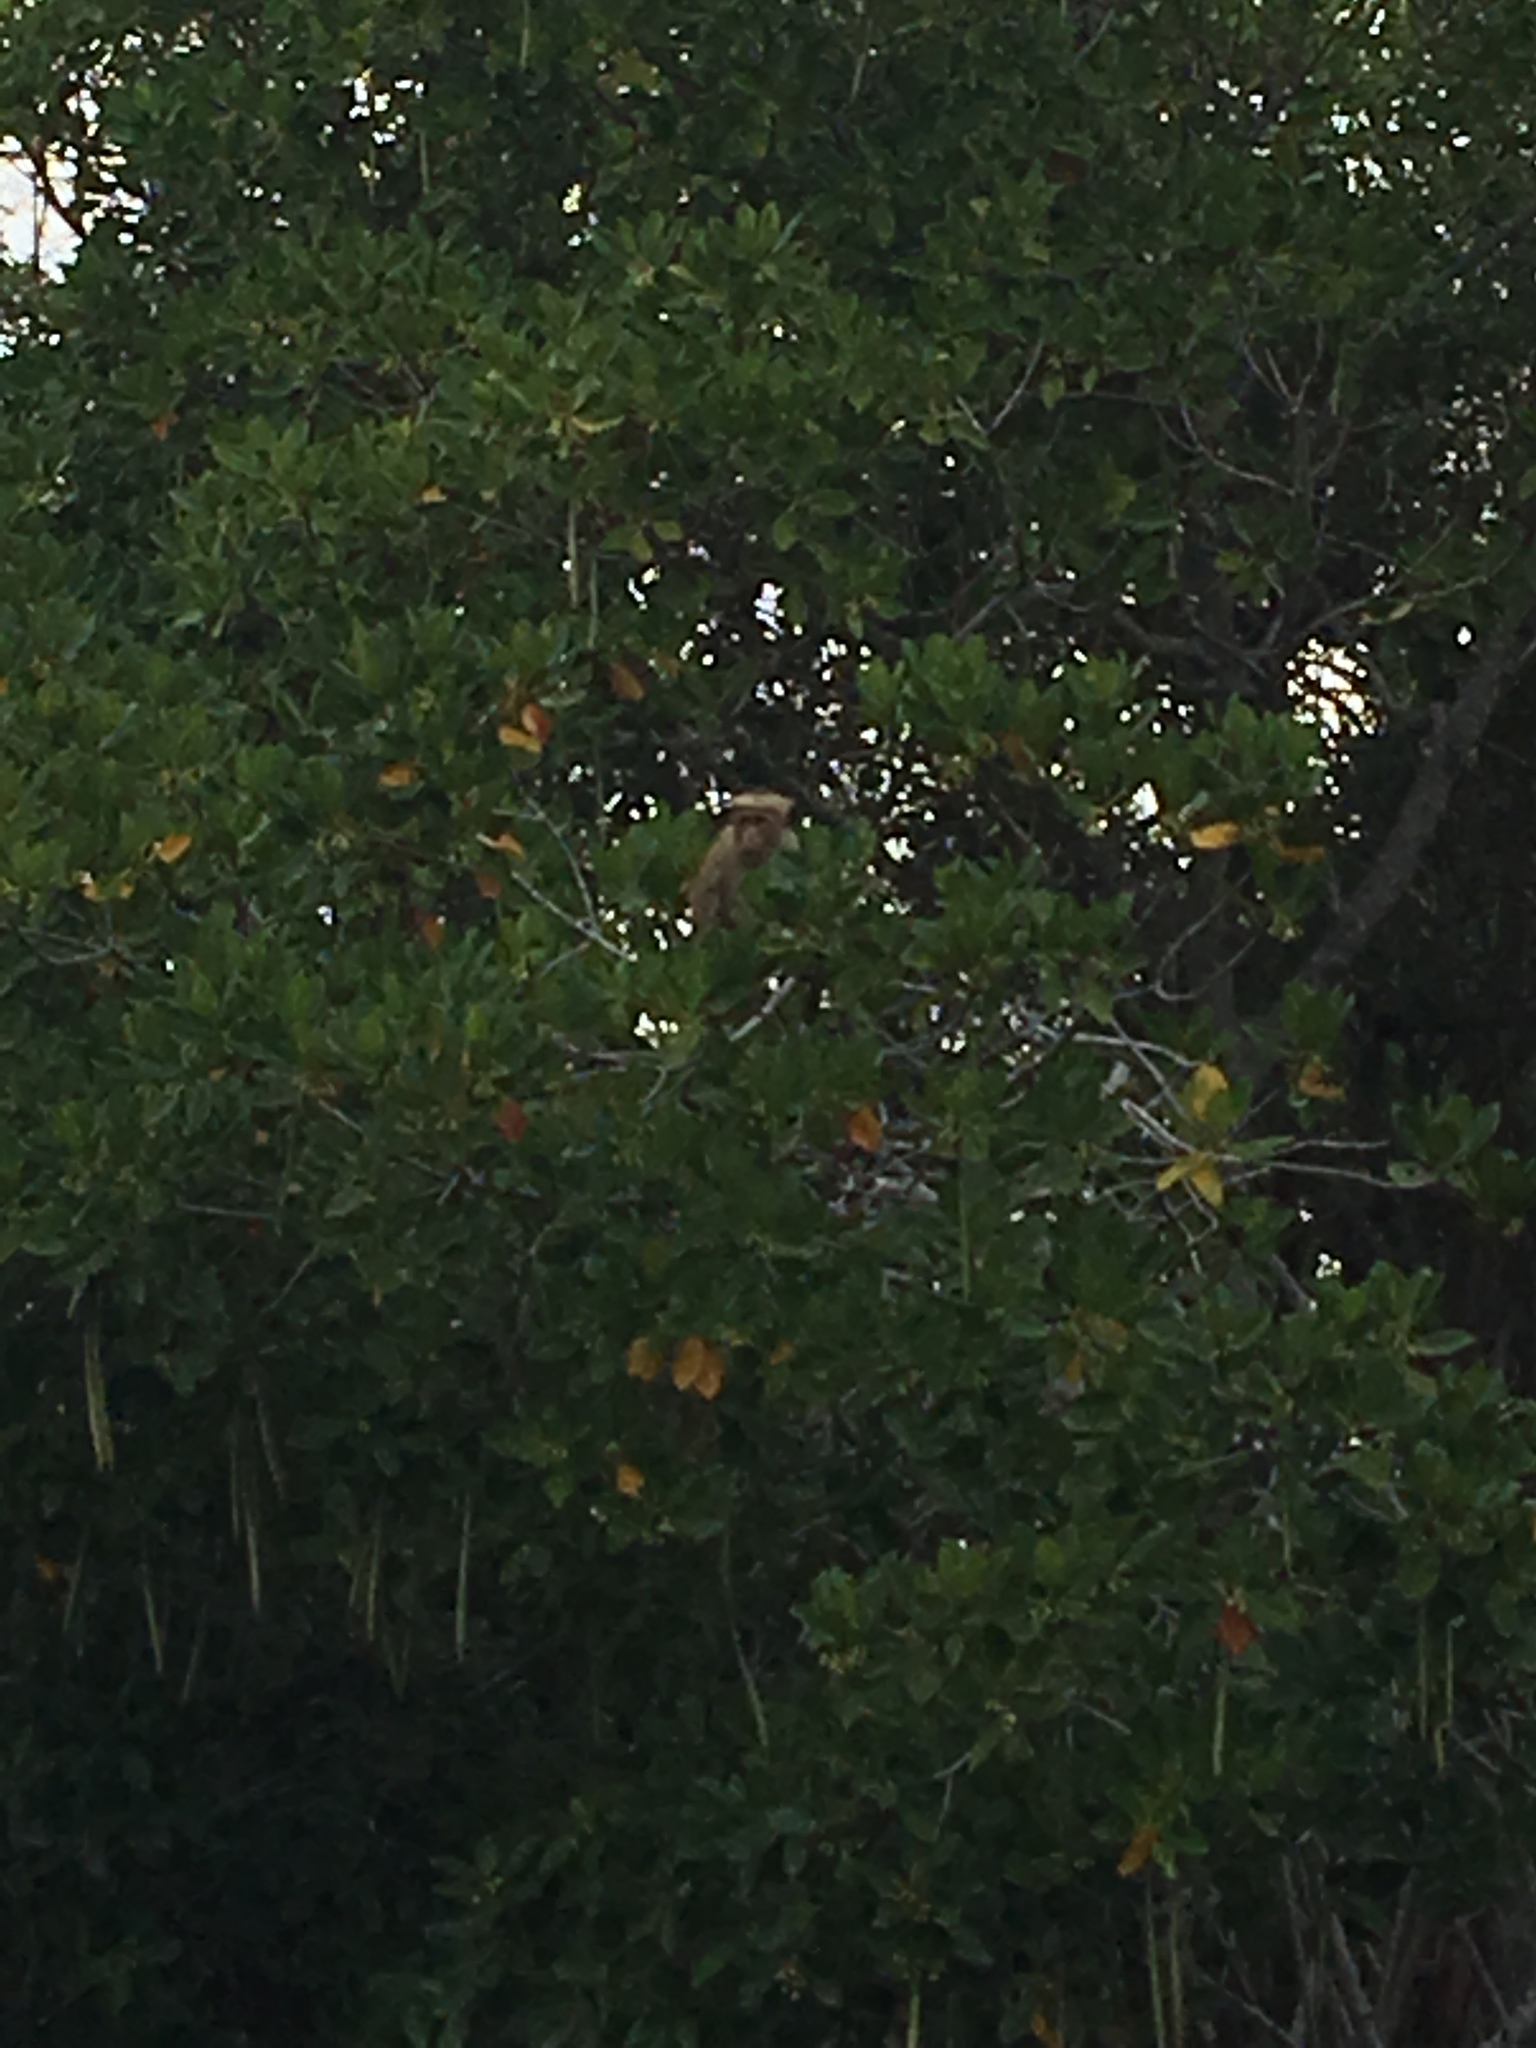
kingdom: Animalia
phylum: Chordata
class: Mammalia
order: Primates
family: Cercopithecidae
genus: Macaca
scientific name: Macaca sinica
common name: Toque macaque
